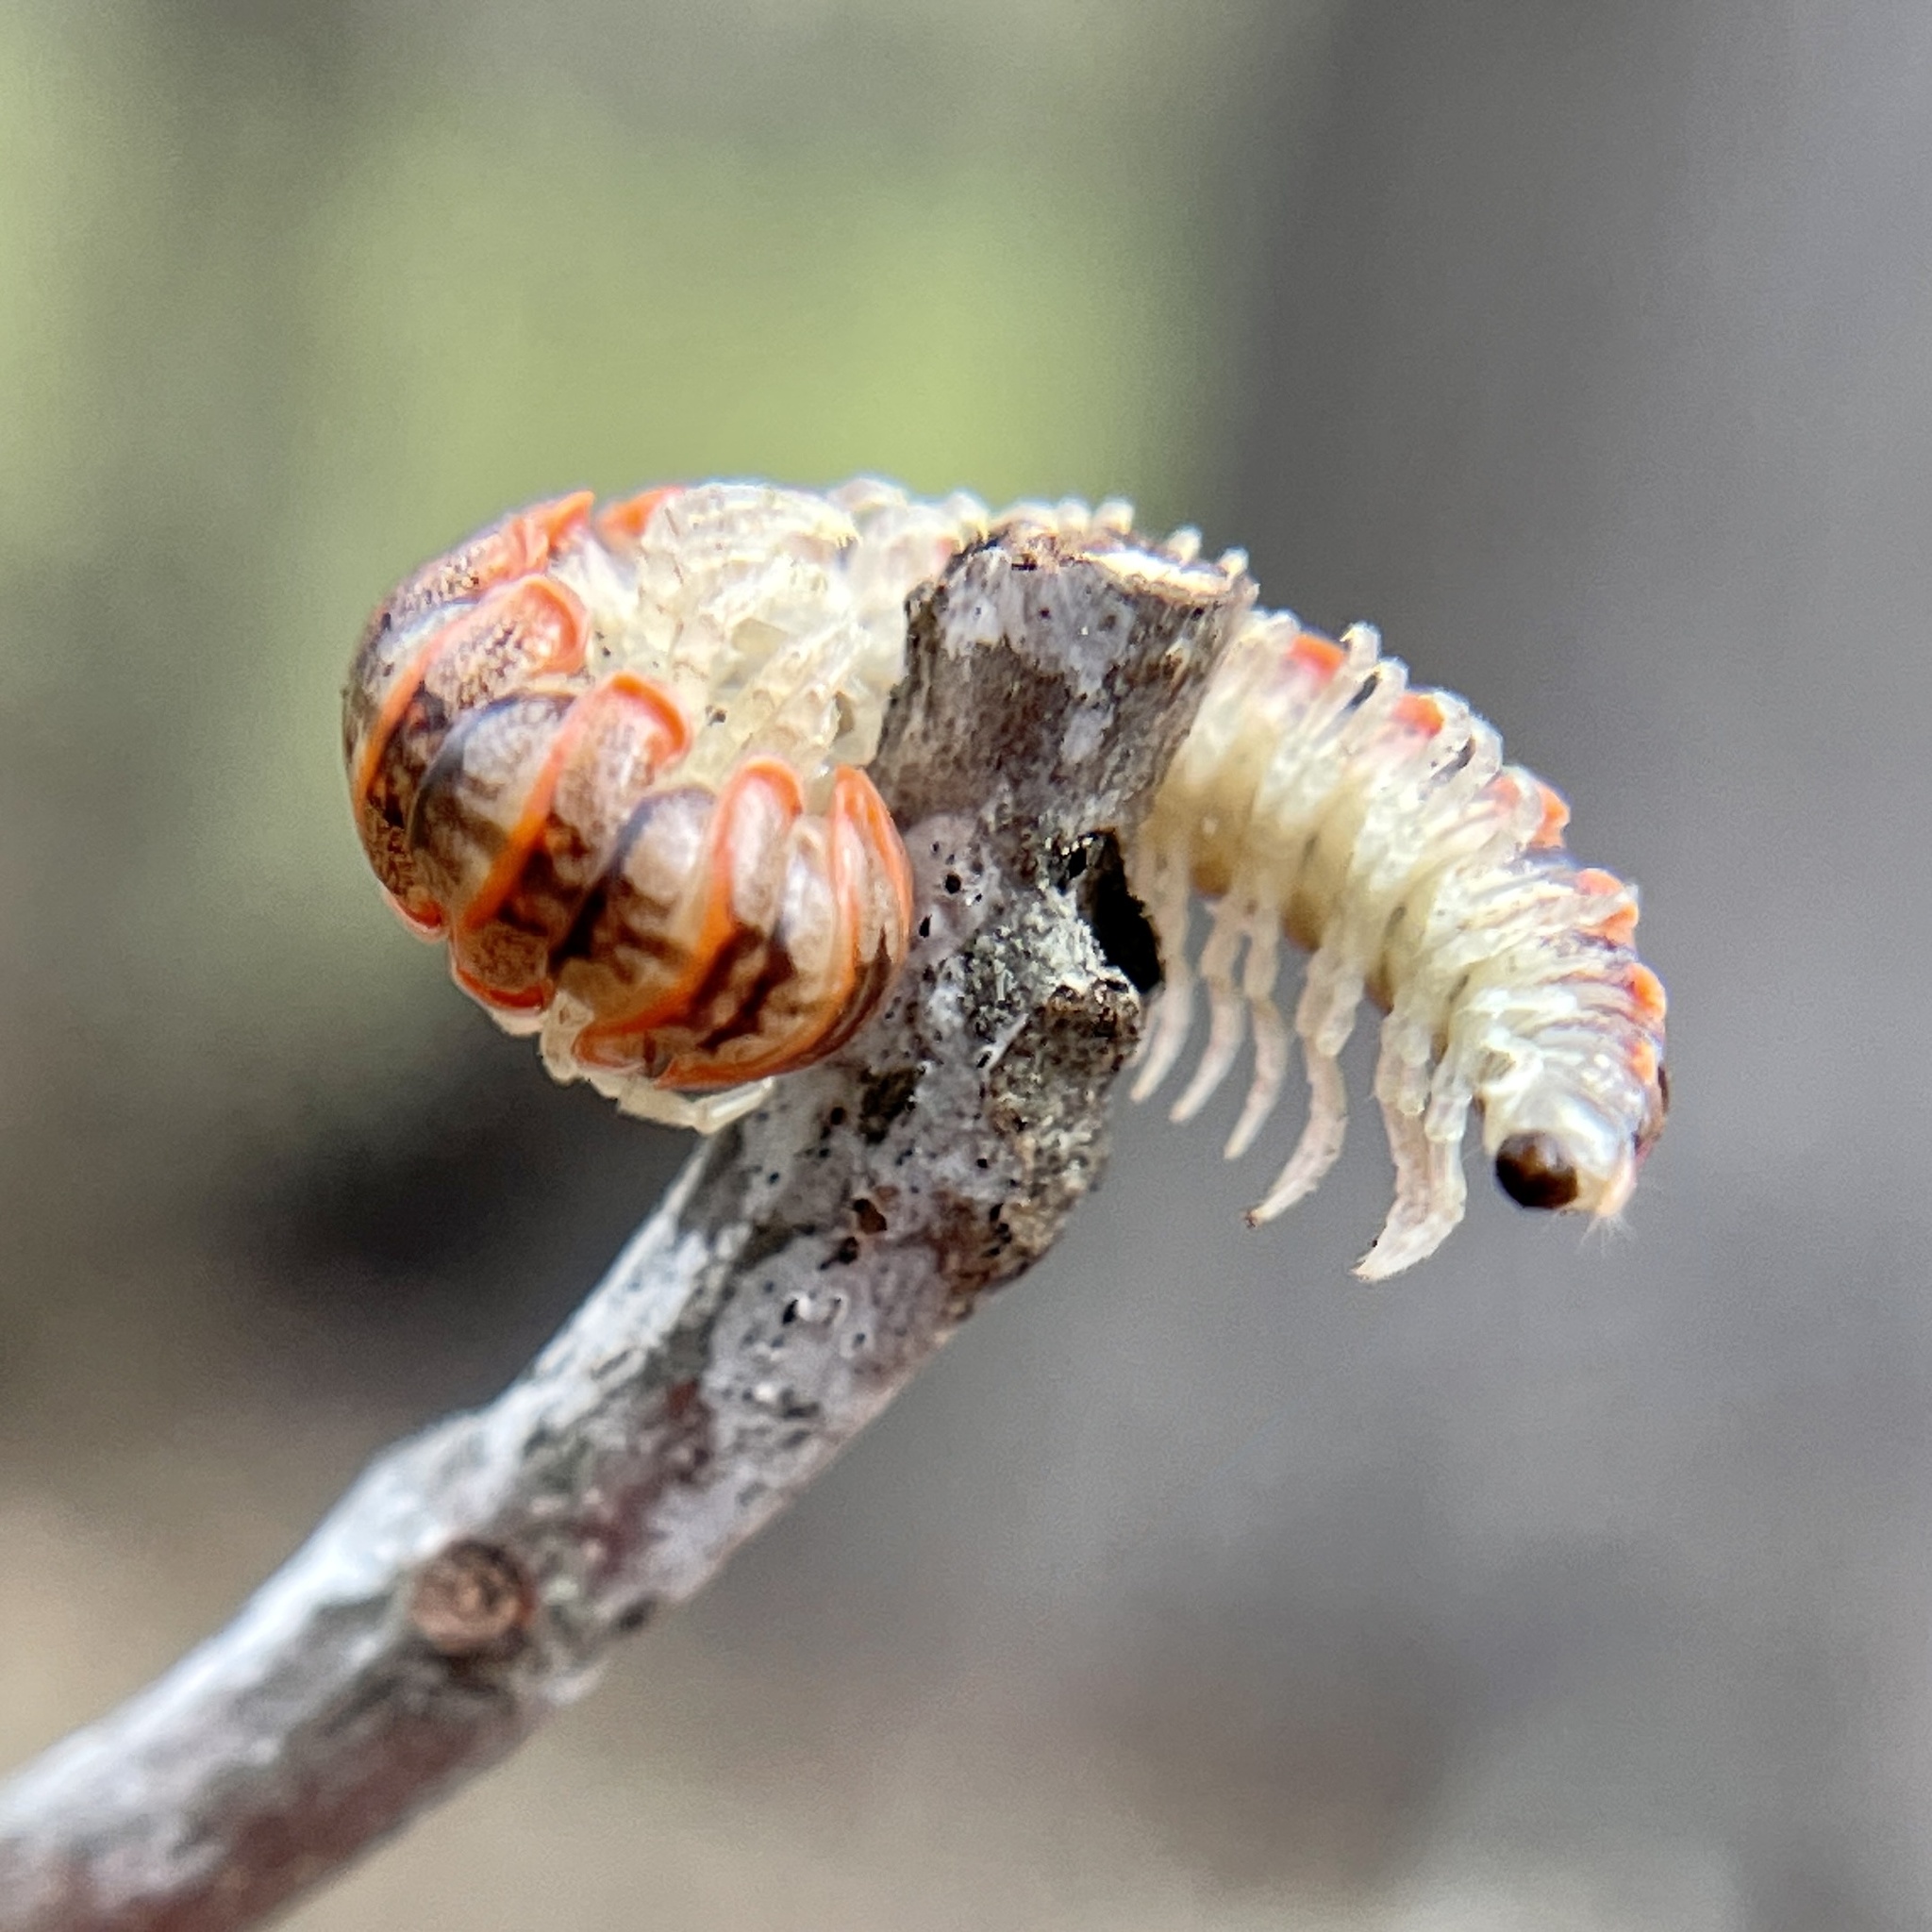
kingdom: Animalia
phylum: Arthropoda
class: Diplopoda
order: Polydesmida
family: Xystodesmidae
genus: Eurymerodesmus
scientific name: Eurymerodesmus
